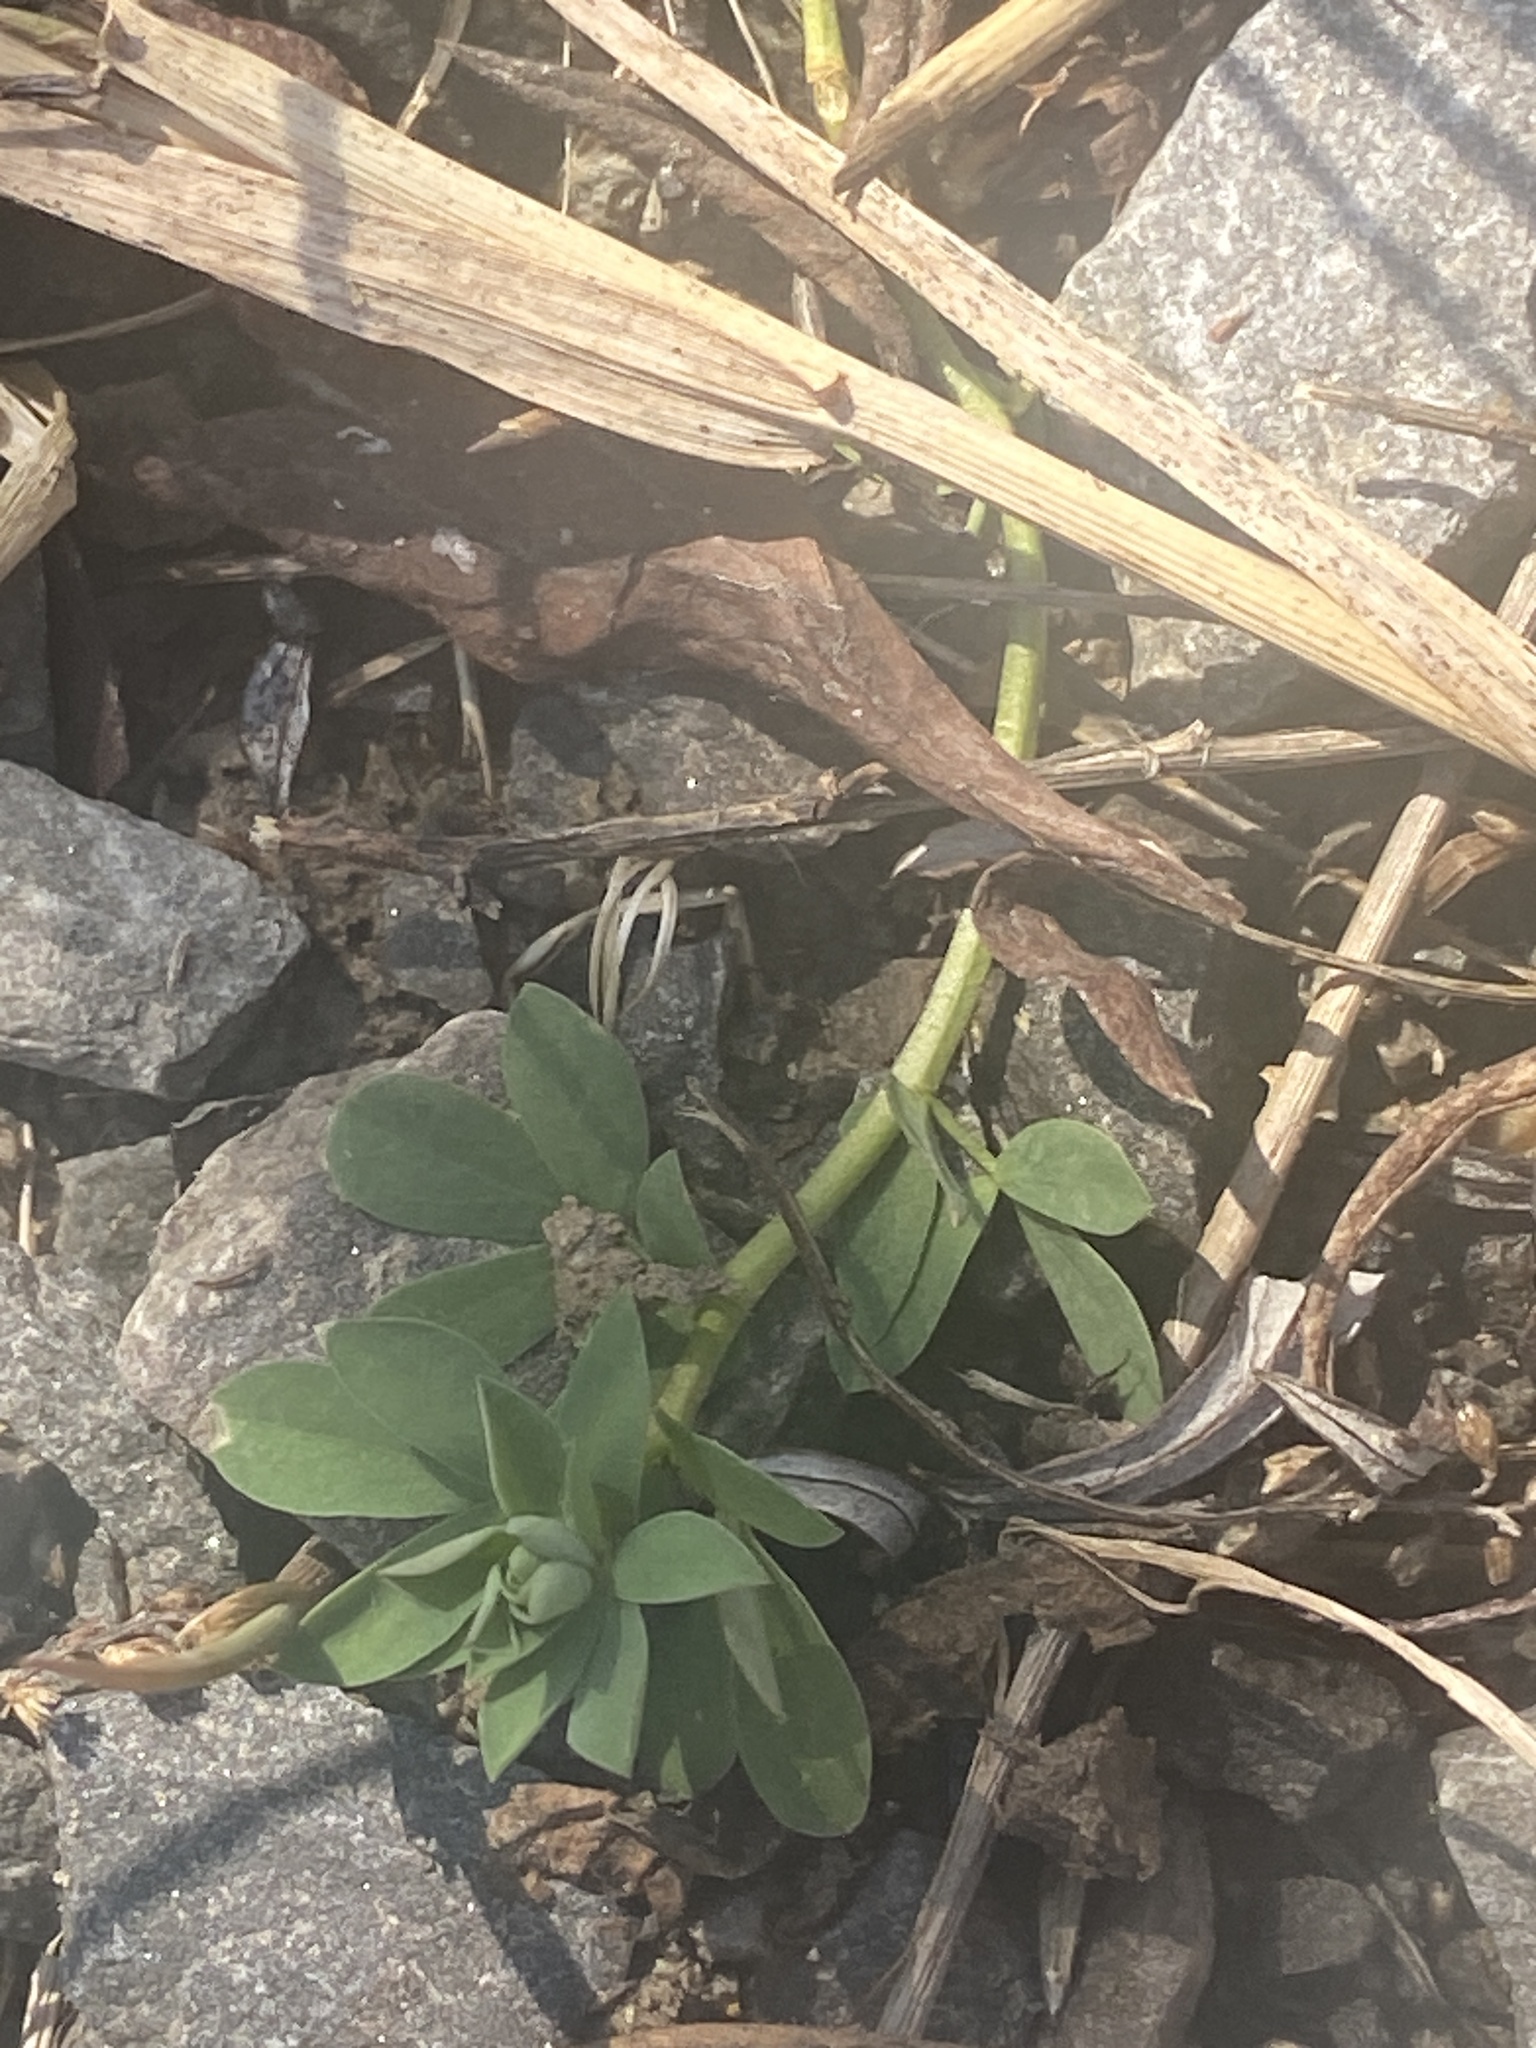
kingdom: Plantae
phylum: Tracheophyta
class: Magnoliopsida
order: Fabales
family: Fabaceae
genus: Lotus
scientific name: Lotus corniculatus
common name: Common bird's-foot-trefoil
